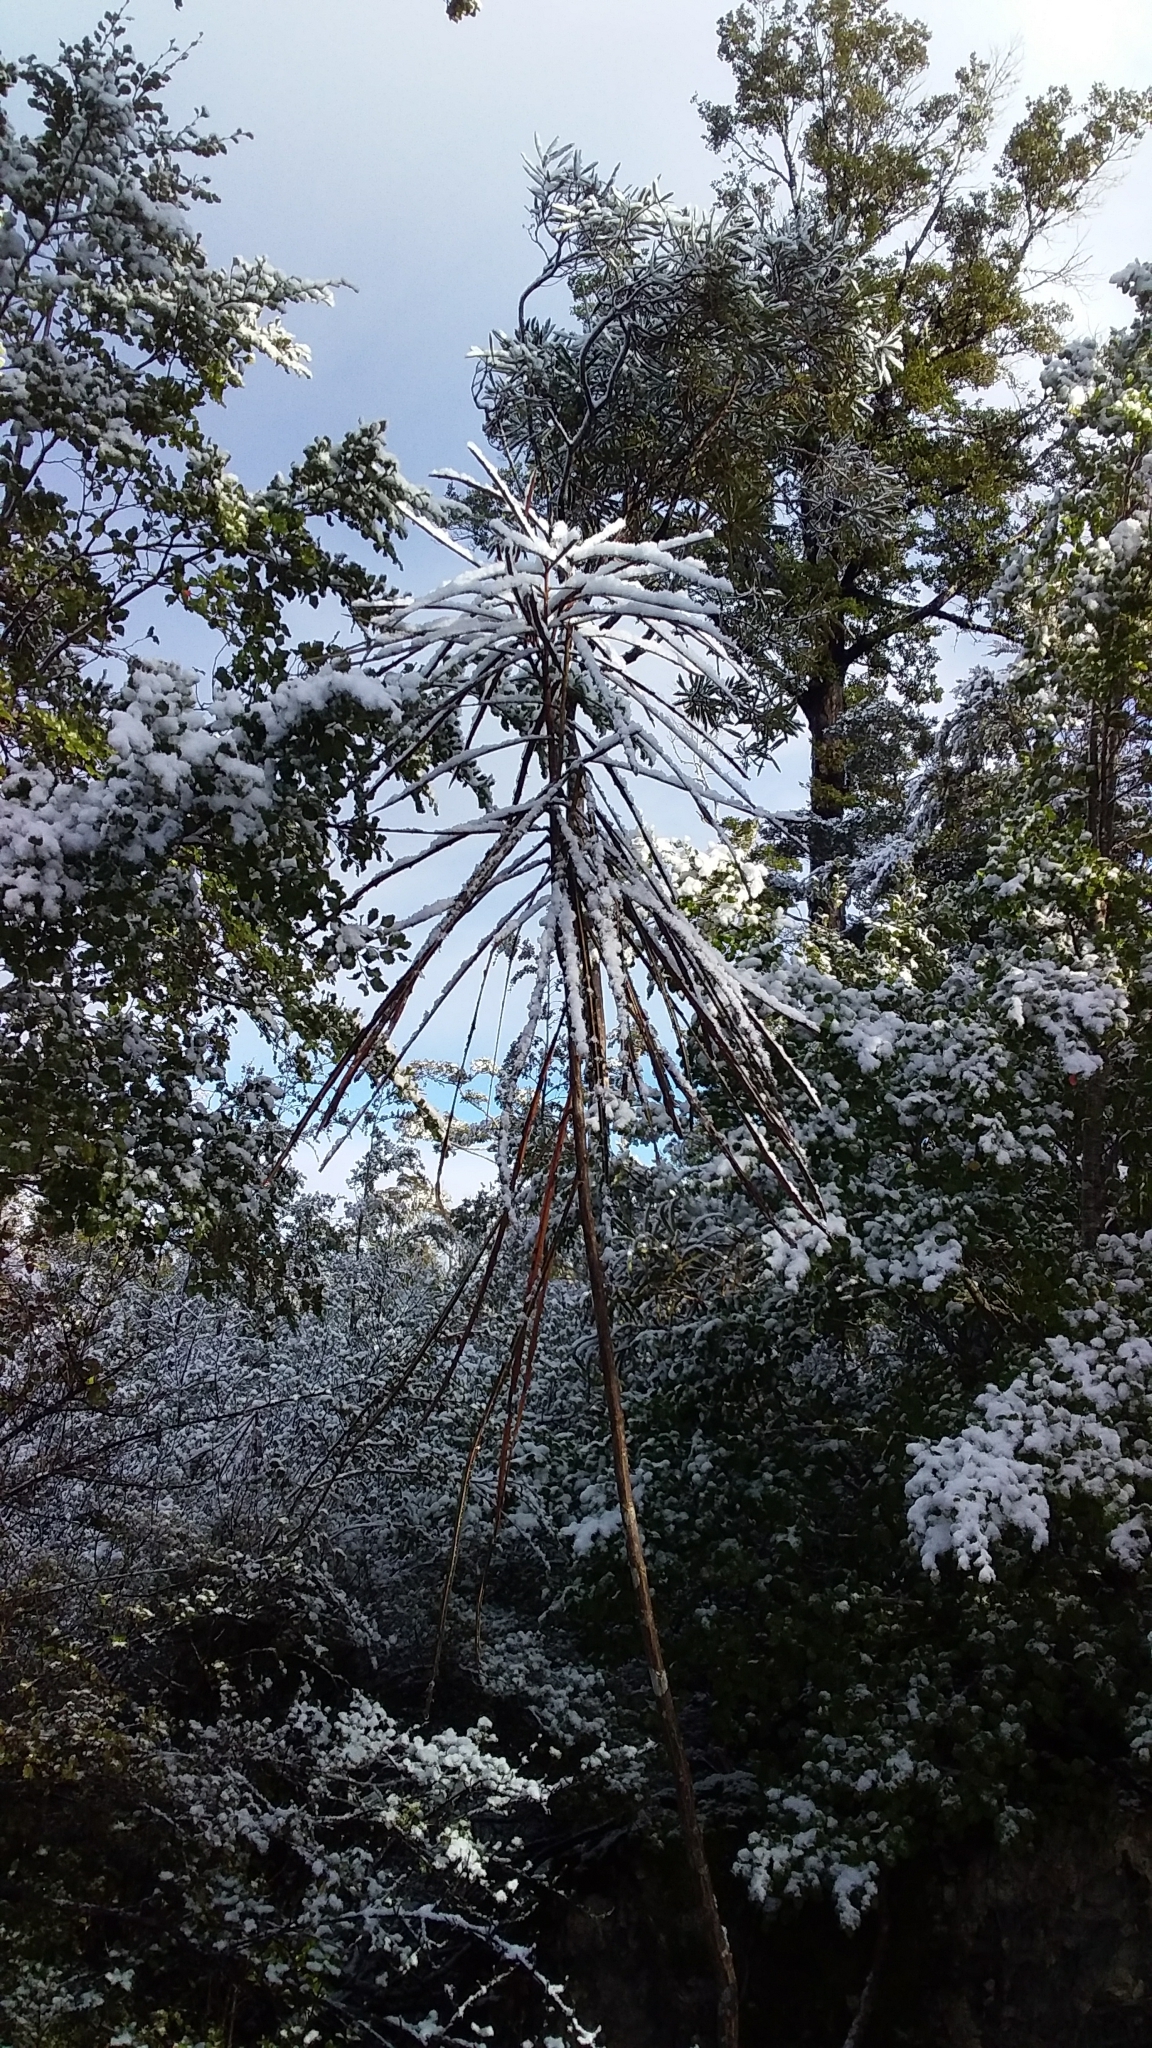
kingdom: Plantae
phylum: Tracheophyta
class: Magnoliopsida
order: Apiales
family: Araliaceae
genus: Pseudopanax
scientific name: Pseudopanax crassifolius
